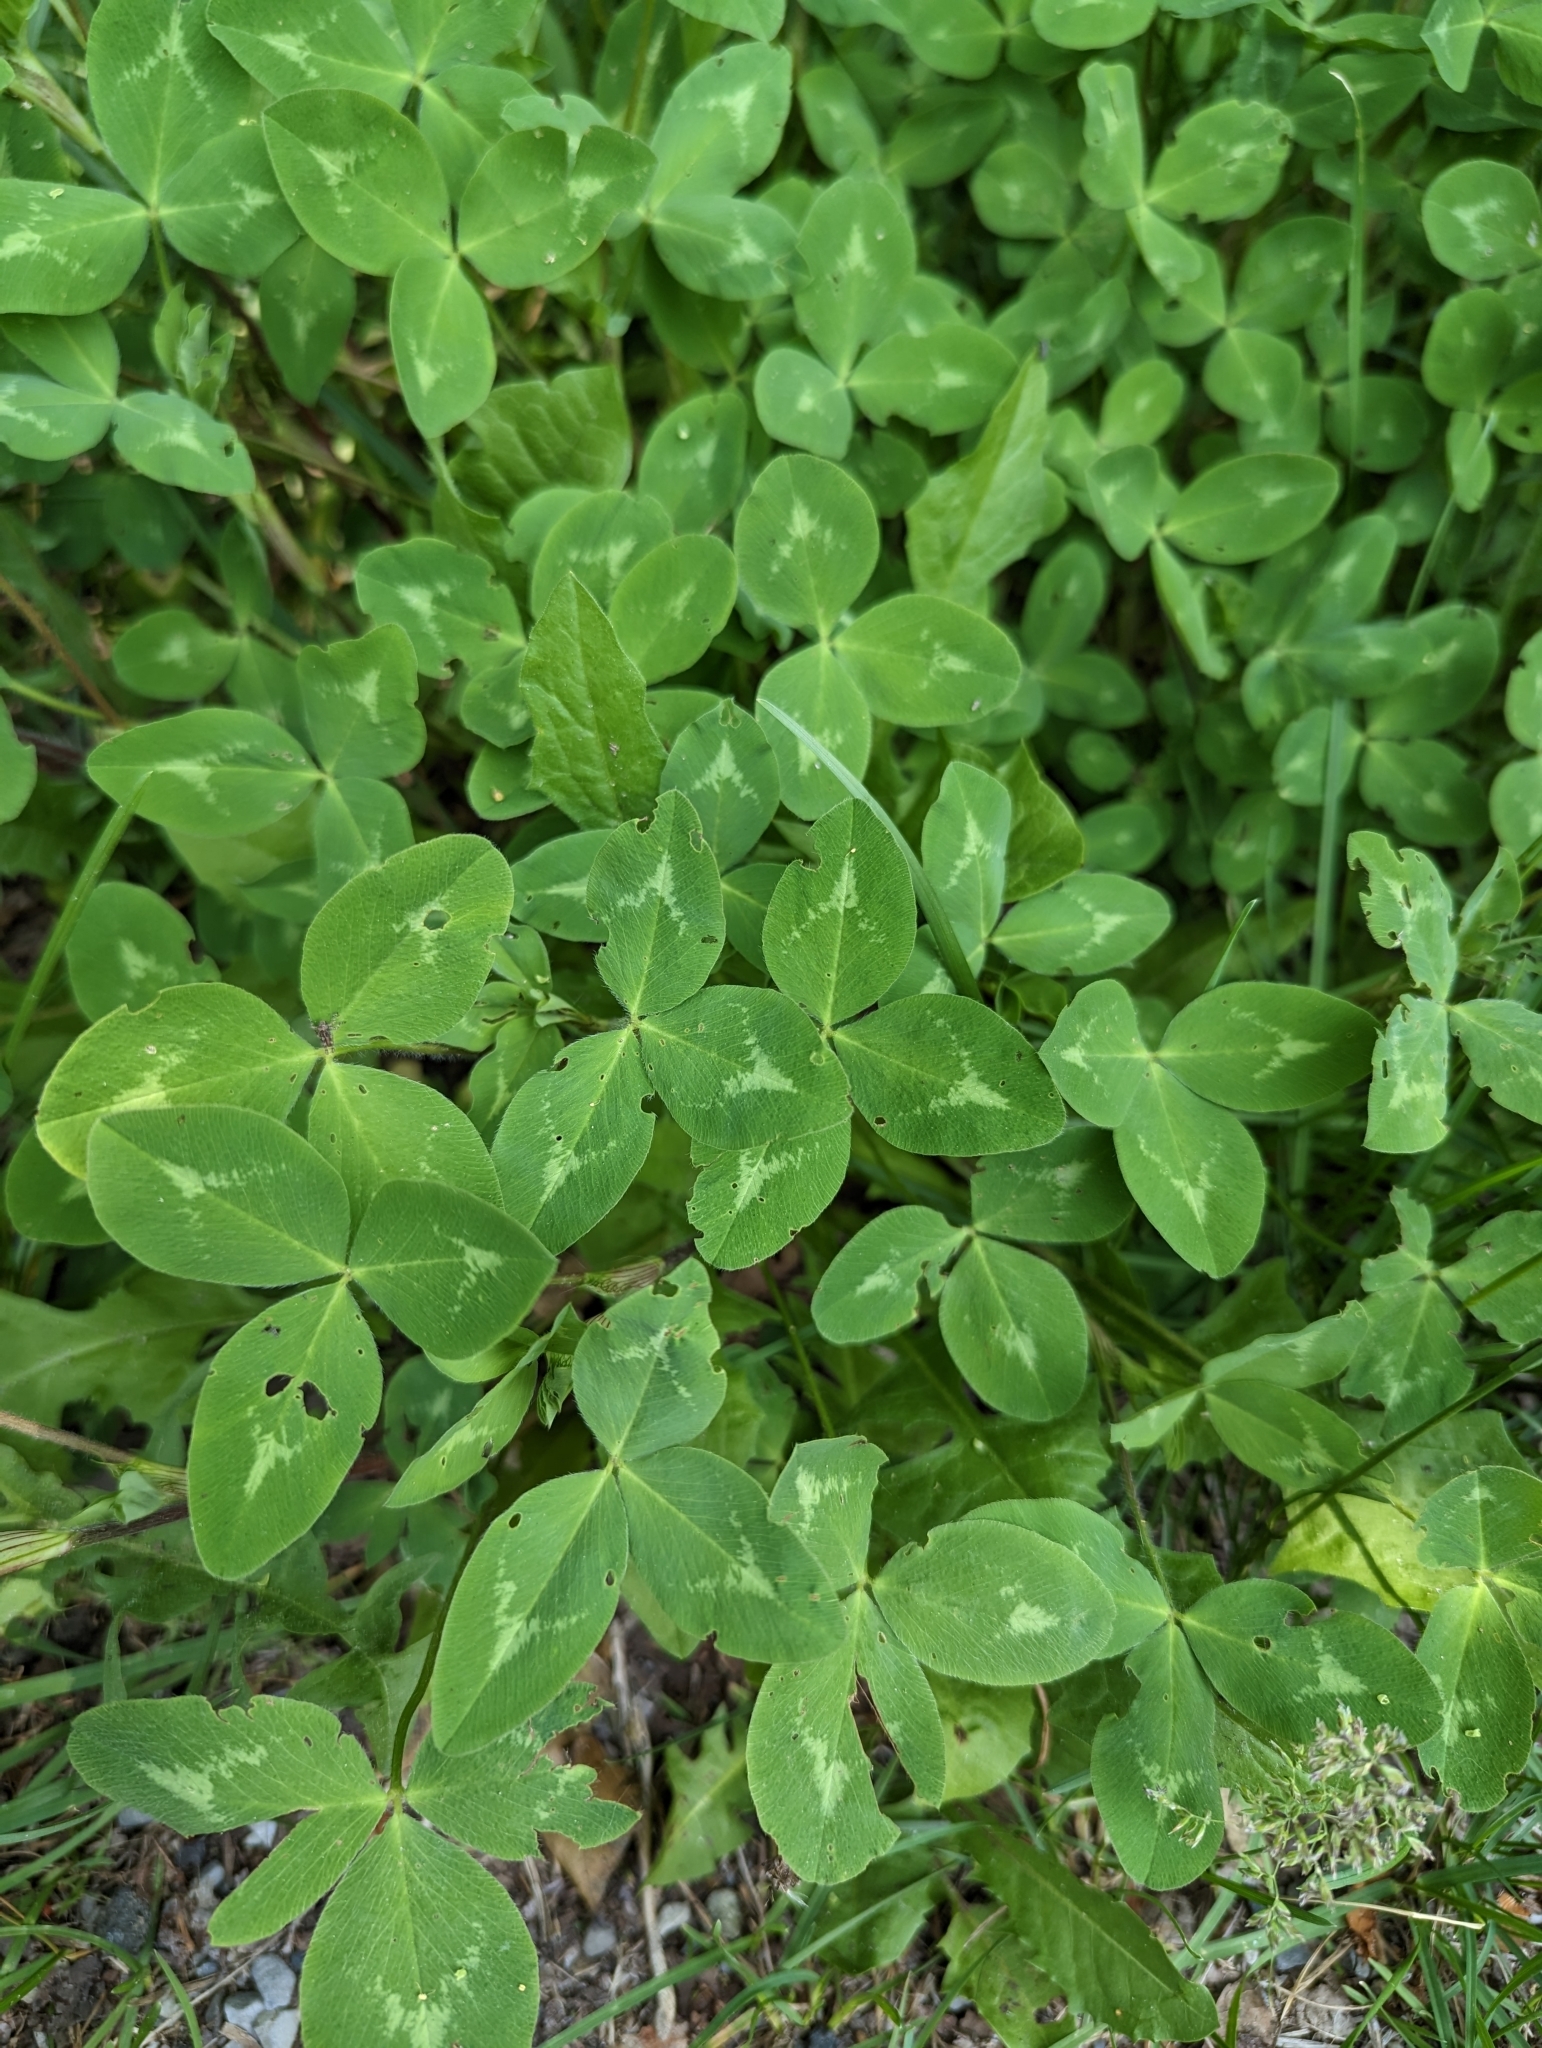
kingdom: Plantae
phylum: Tracheophyta
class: Magnoliopsida
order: Fabales
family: Fabaceae
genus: Trifolium
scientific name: Trifolium pratense
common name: Red clover
